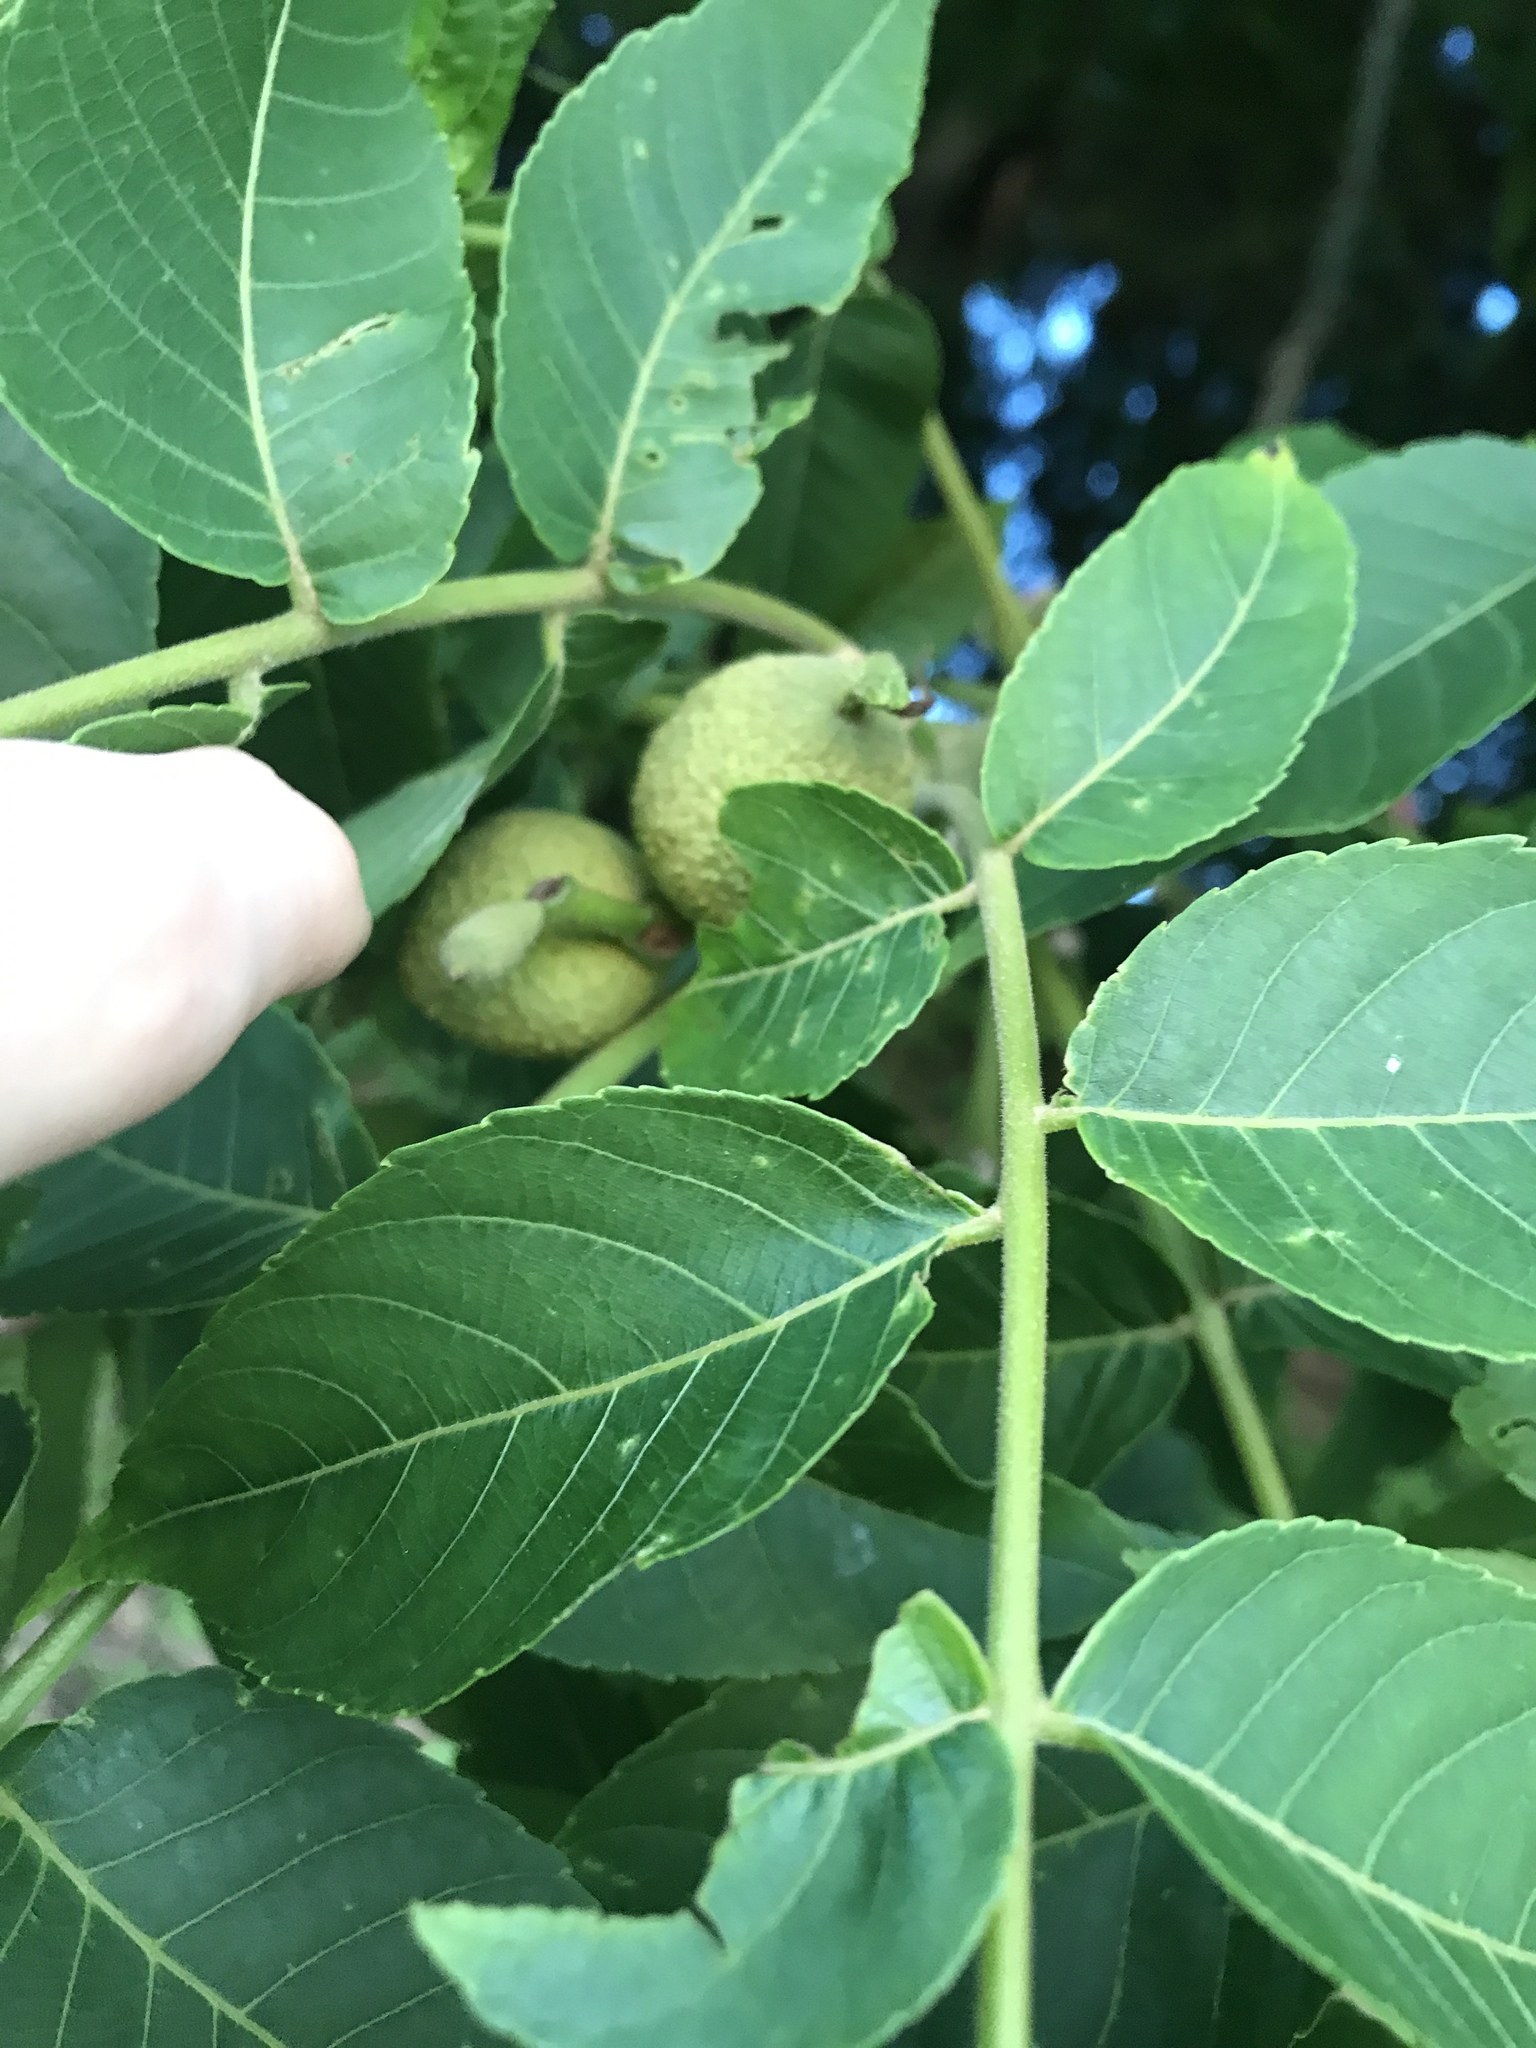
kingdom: Plantae
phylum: Tracheophyta
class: Magnoliopsida
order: Fagales
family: Juglandaceae
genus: Juglans
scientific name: Juglans nigra
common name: Black walnut
